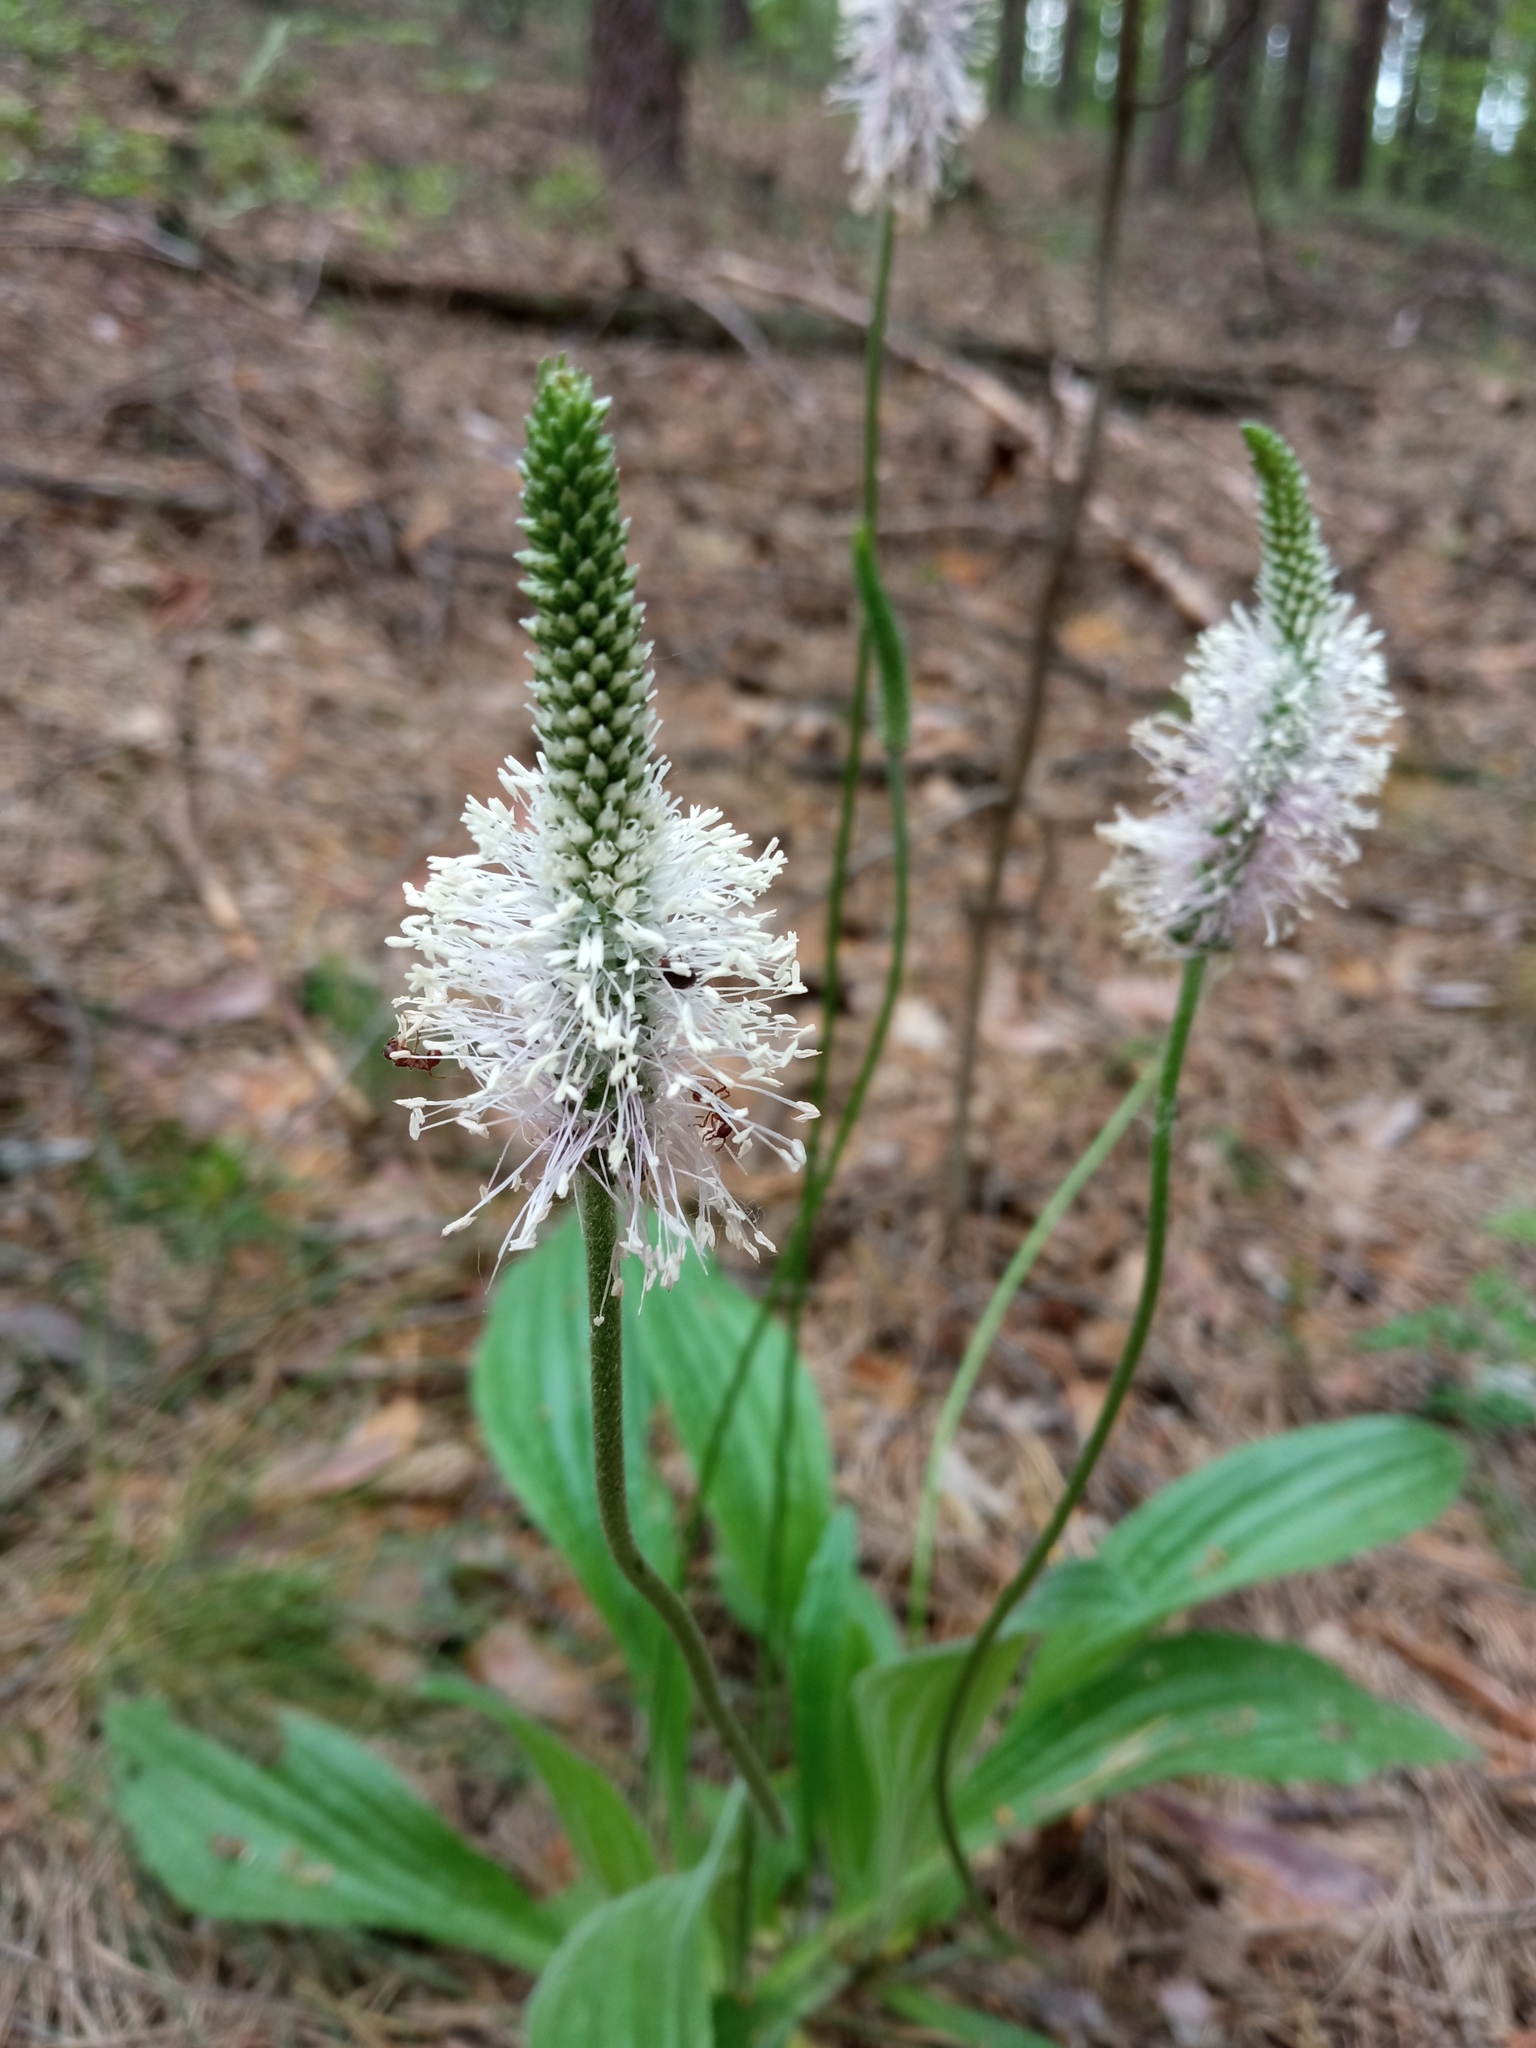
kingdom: Plantae
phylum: Tracheophyta
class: Magnoliopsida
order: Lamiales
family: Plantaginaceae
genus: Plantago
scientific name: Plantago urvillei
